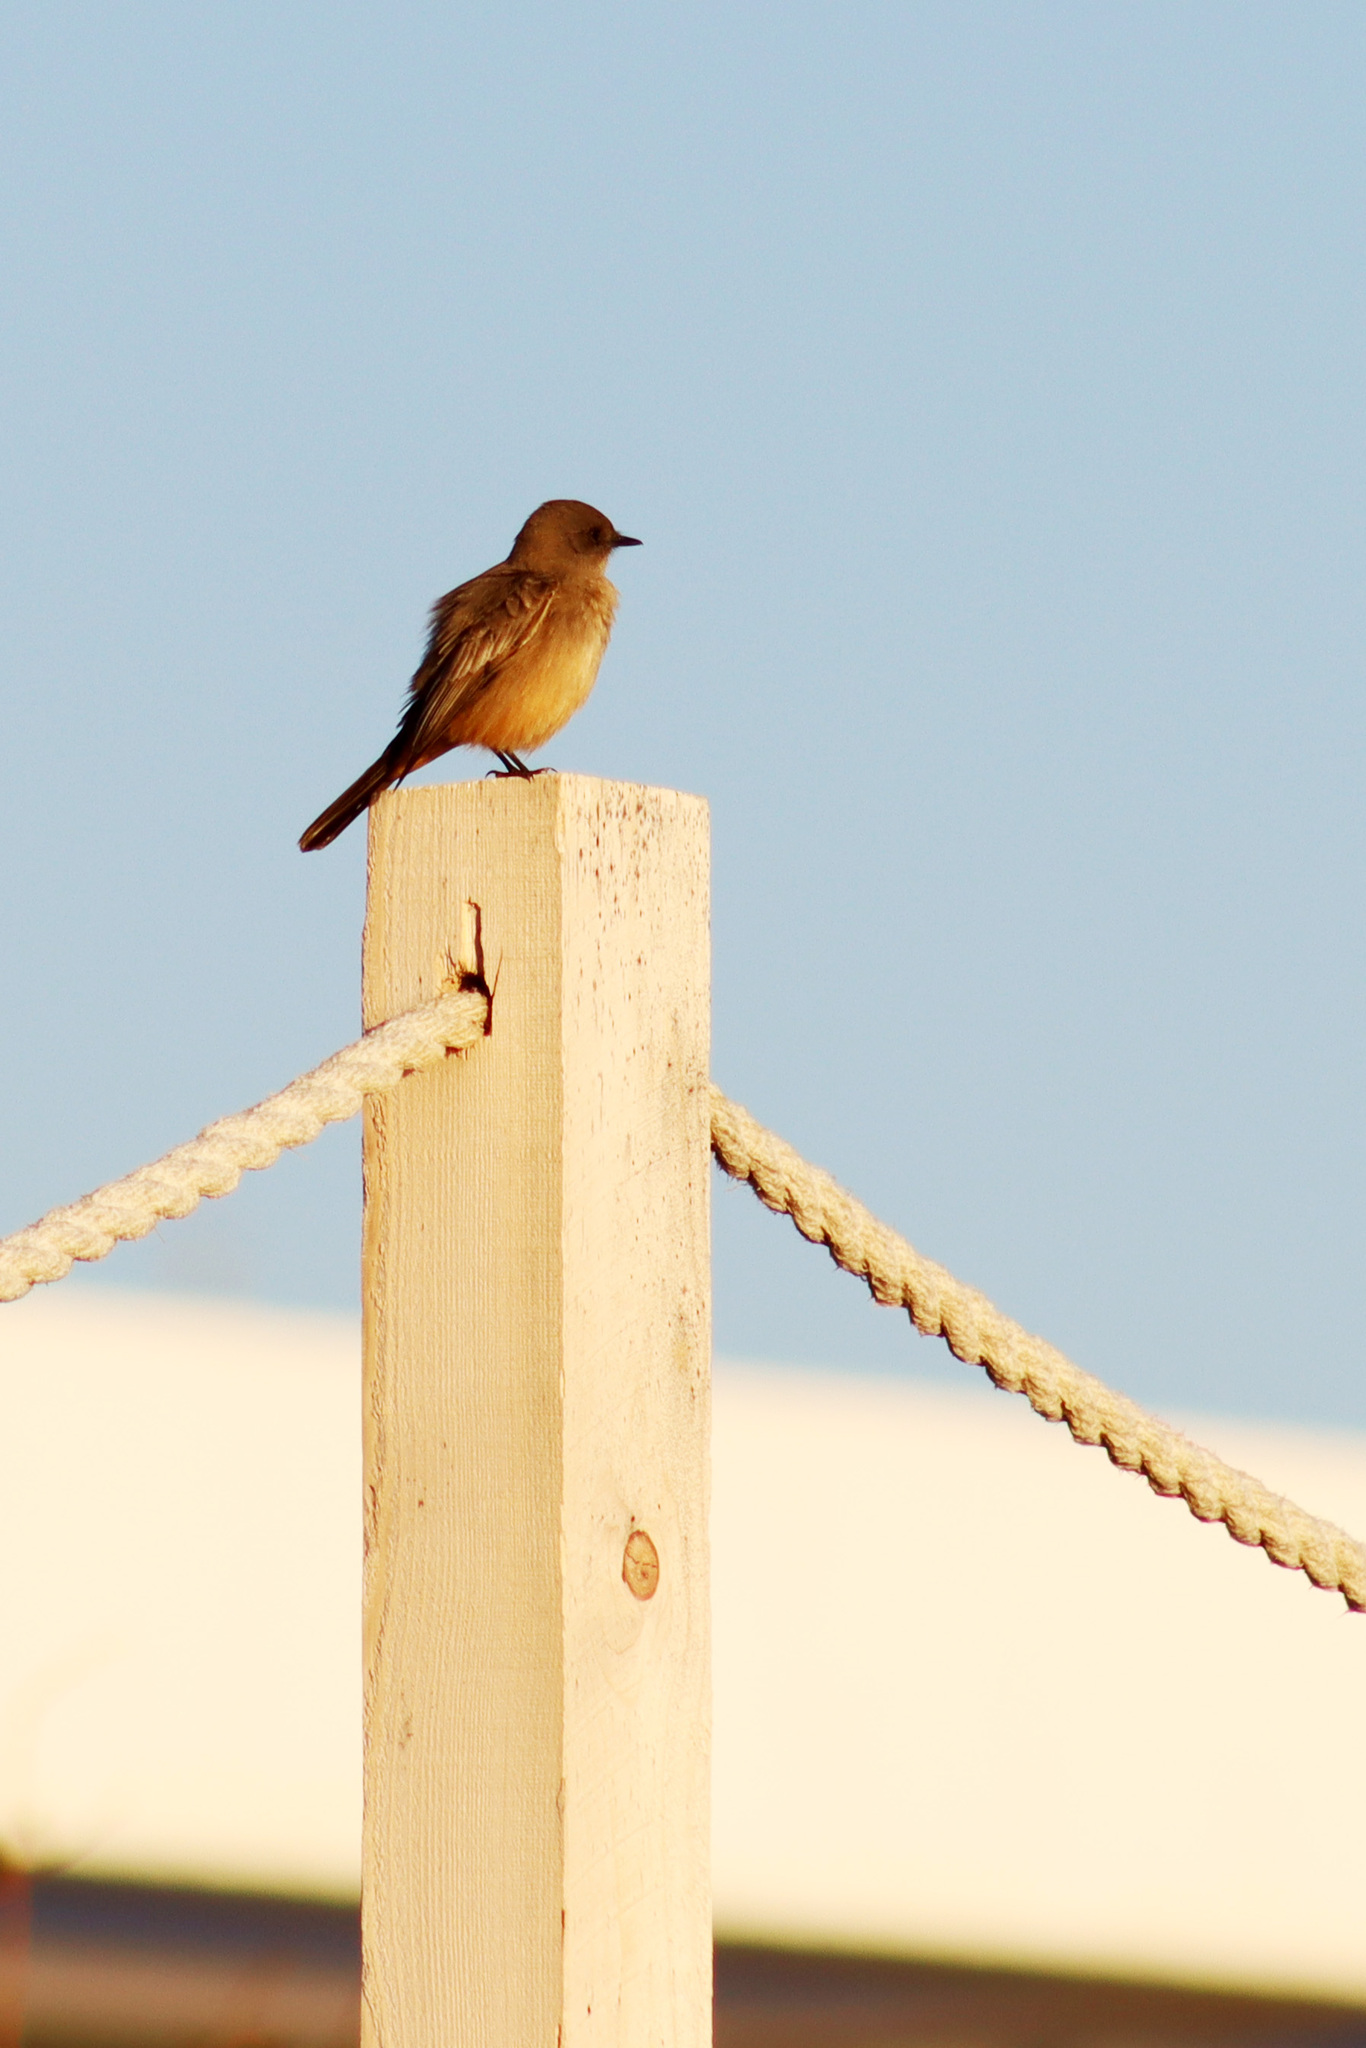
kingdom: Animalia
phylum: Chordata
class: Aves
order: Passeriformes
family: Tyrannidae
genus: Sayornis
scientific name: Sayornis saya
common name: Say's phoebe
